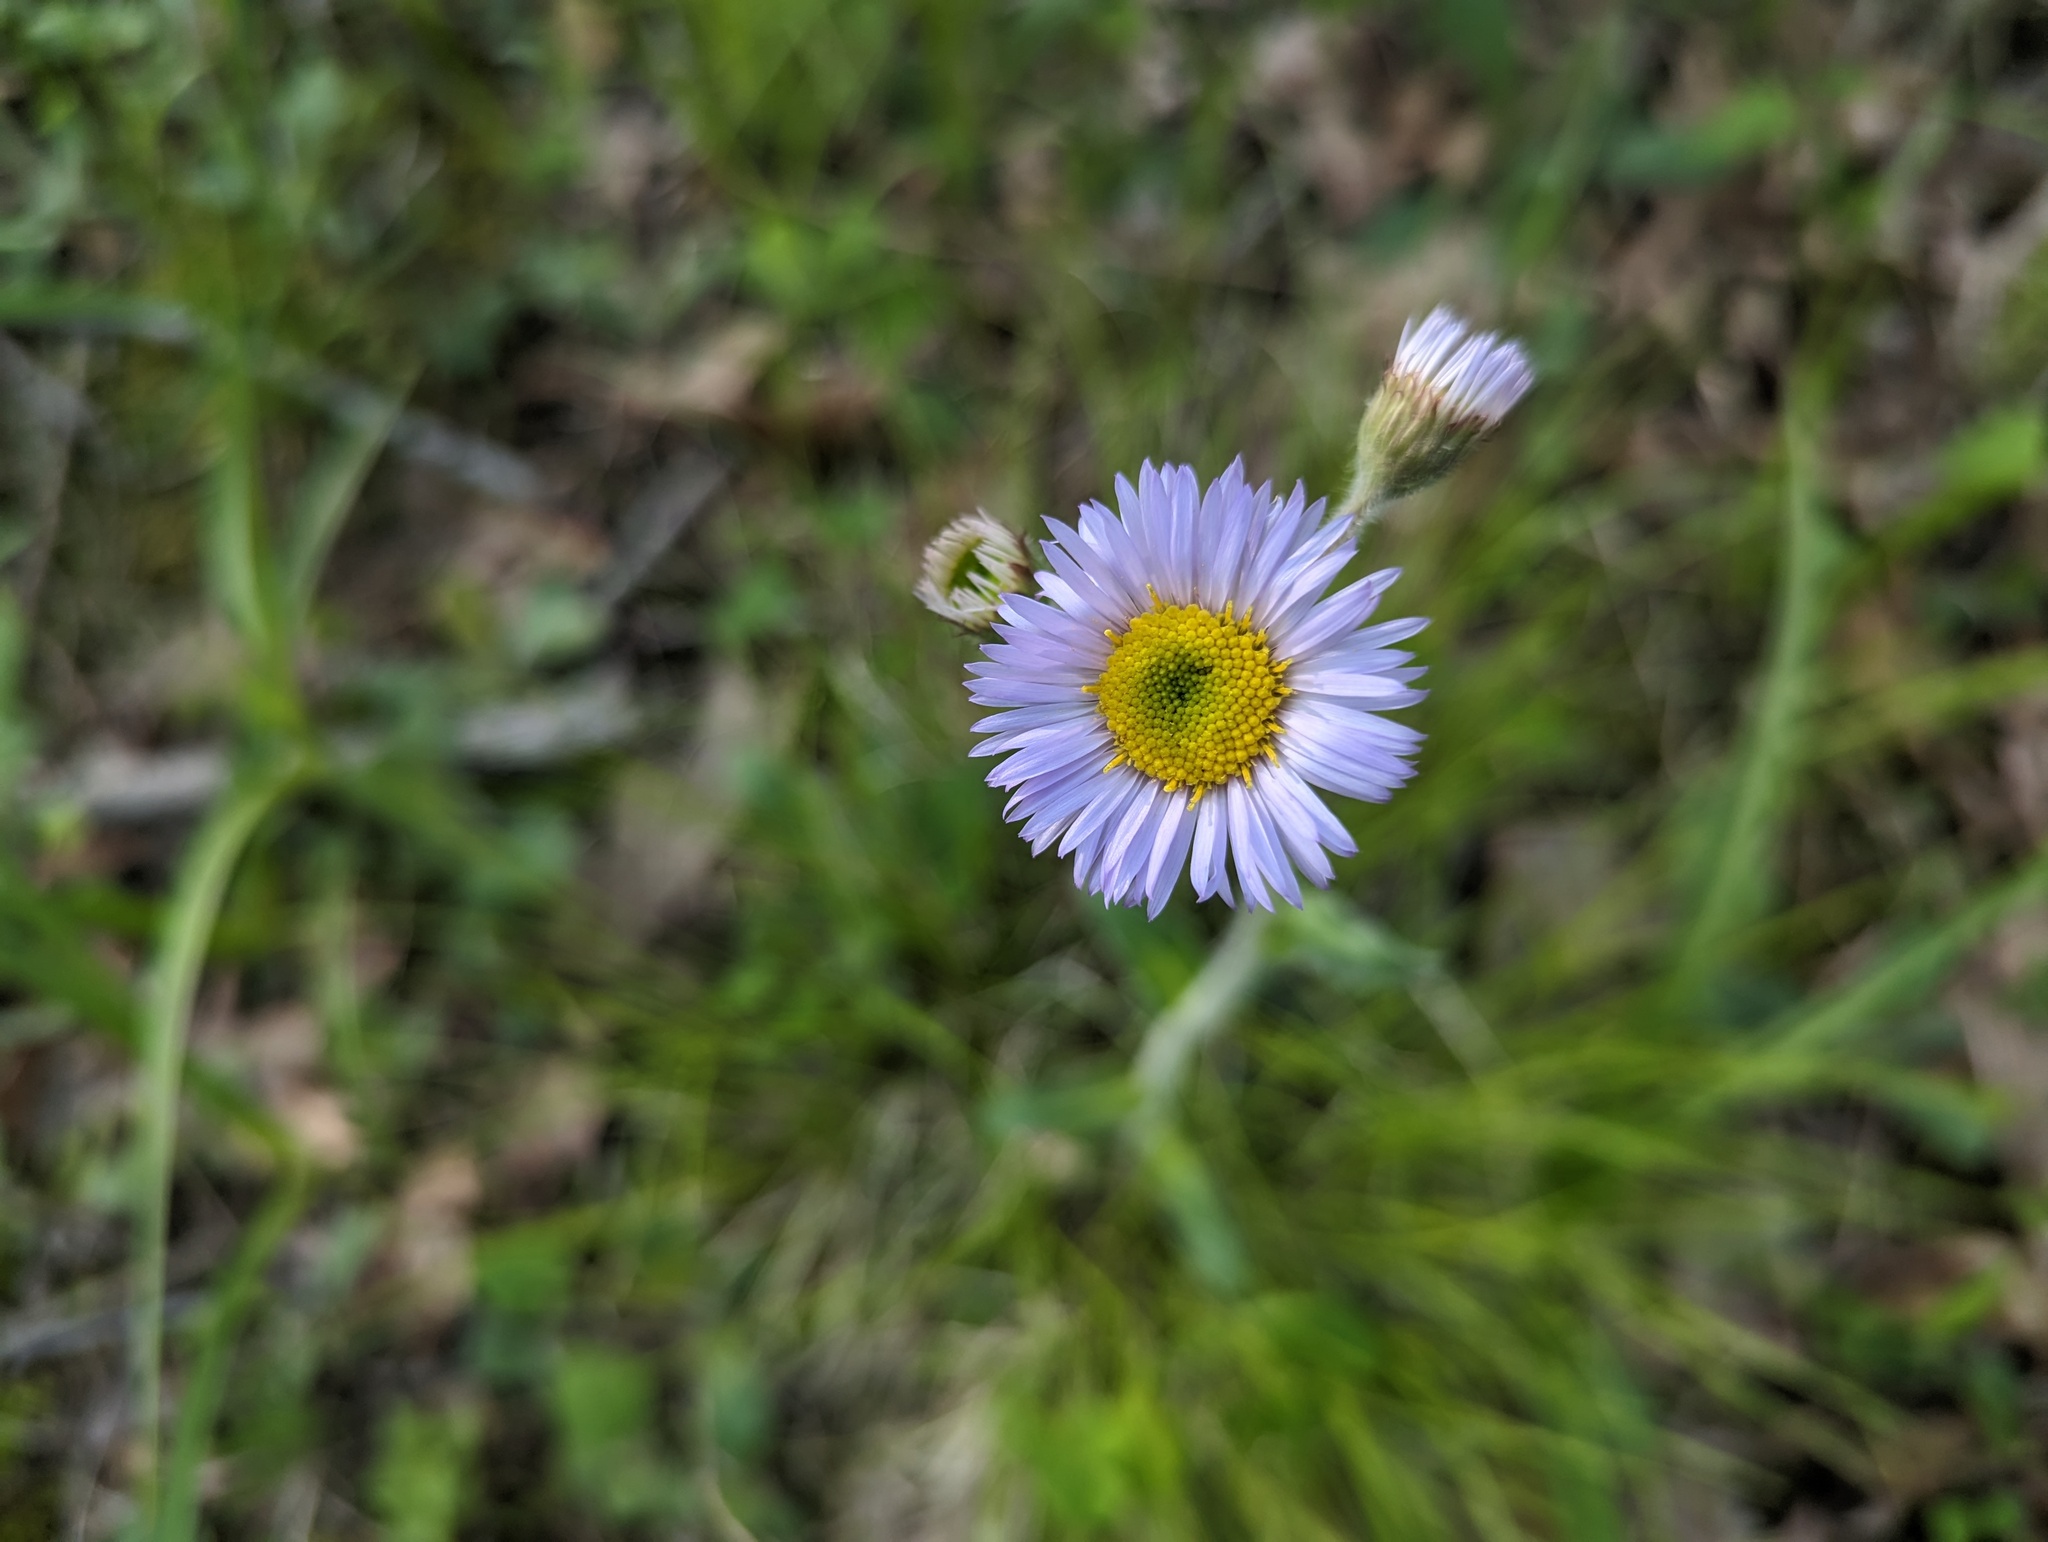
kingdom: Plantae
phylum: Tracheophyta
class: Magnoliopsida
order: Asterales
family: Asteraceae
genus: Erigeron
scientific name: Erigeron pulchellus
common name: Hairy fleabane
